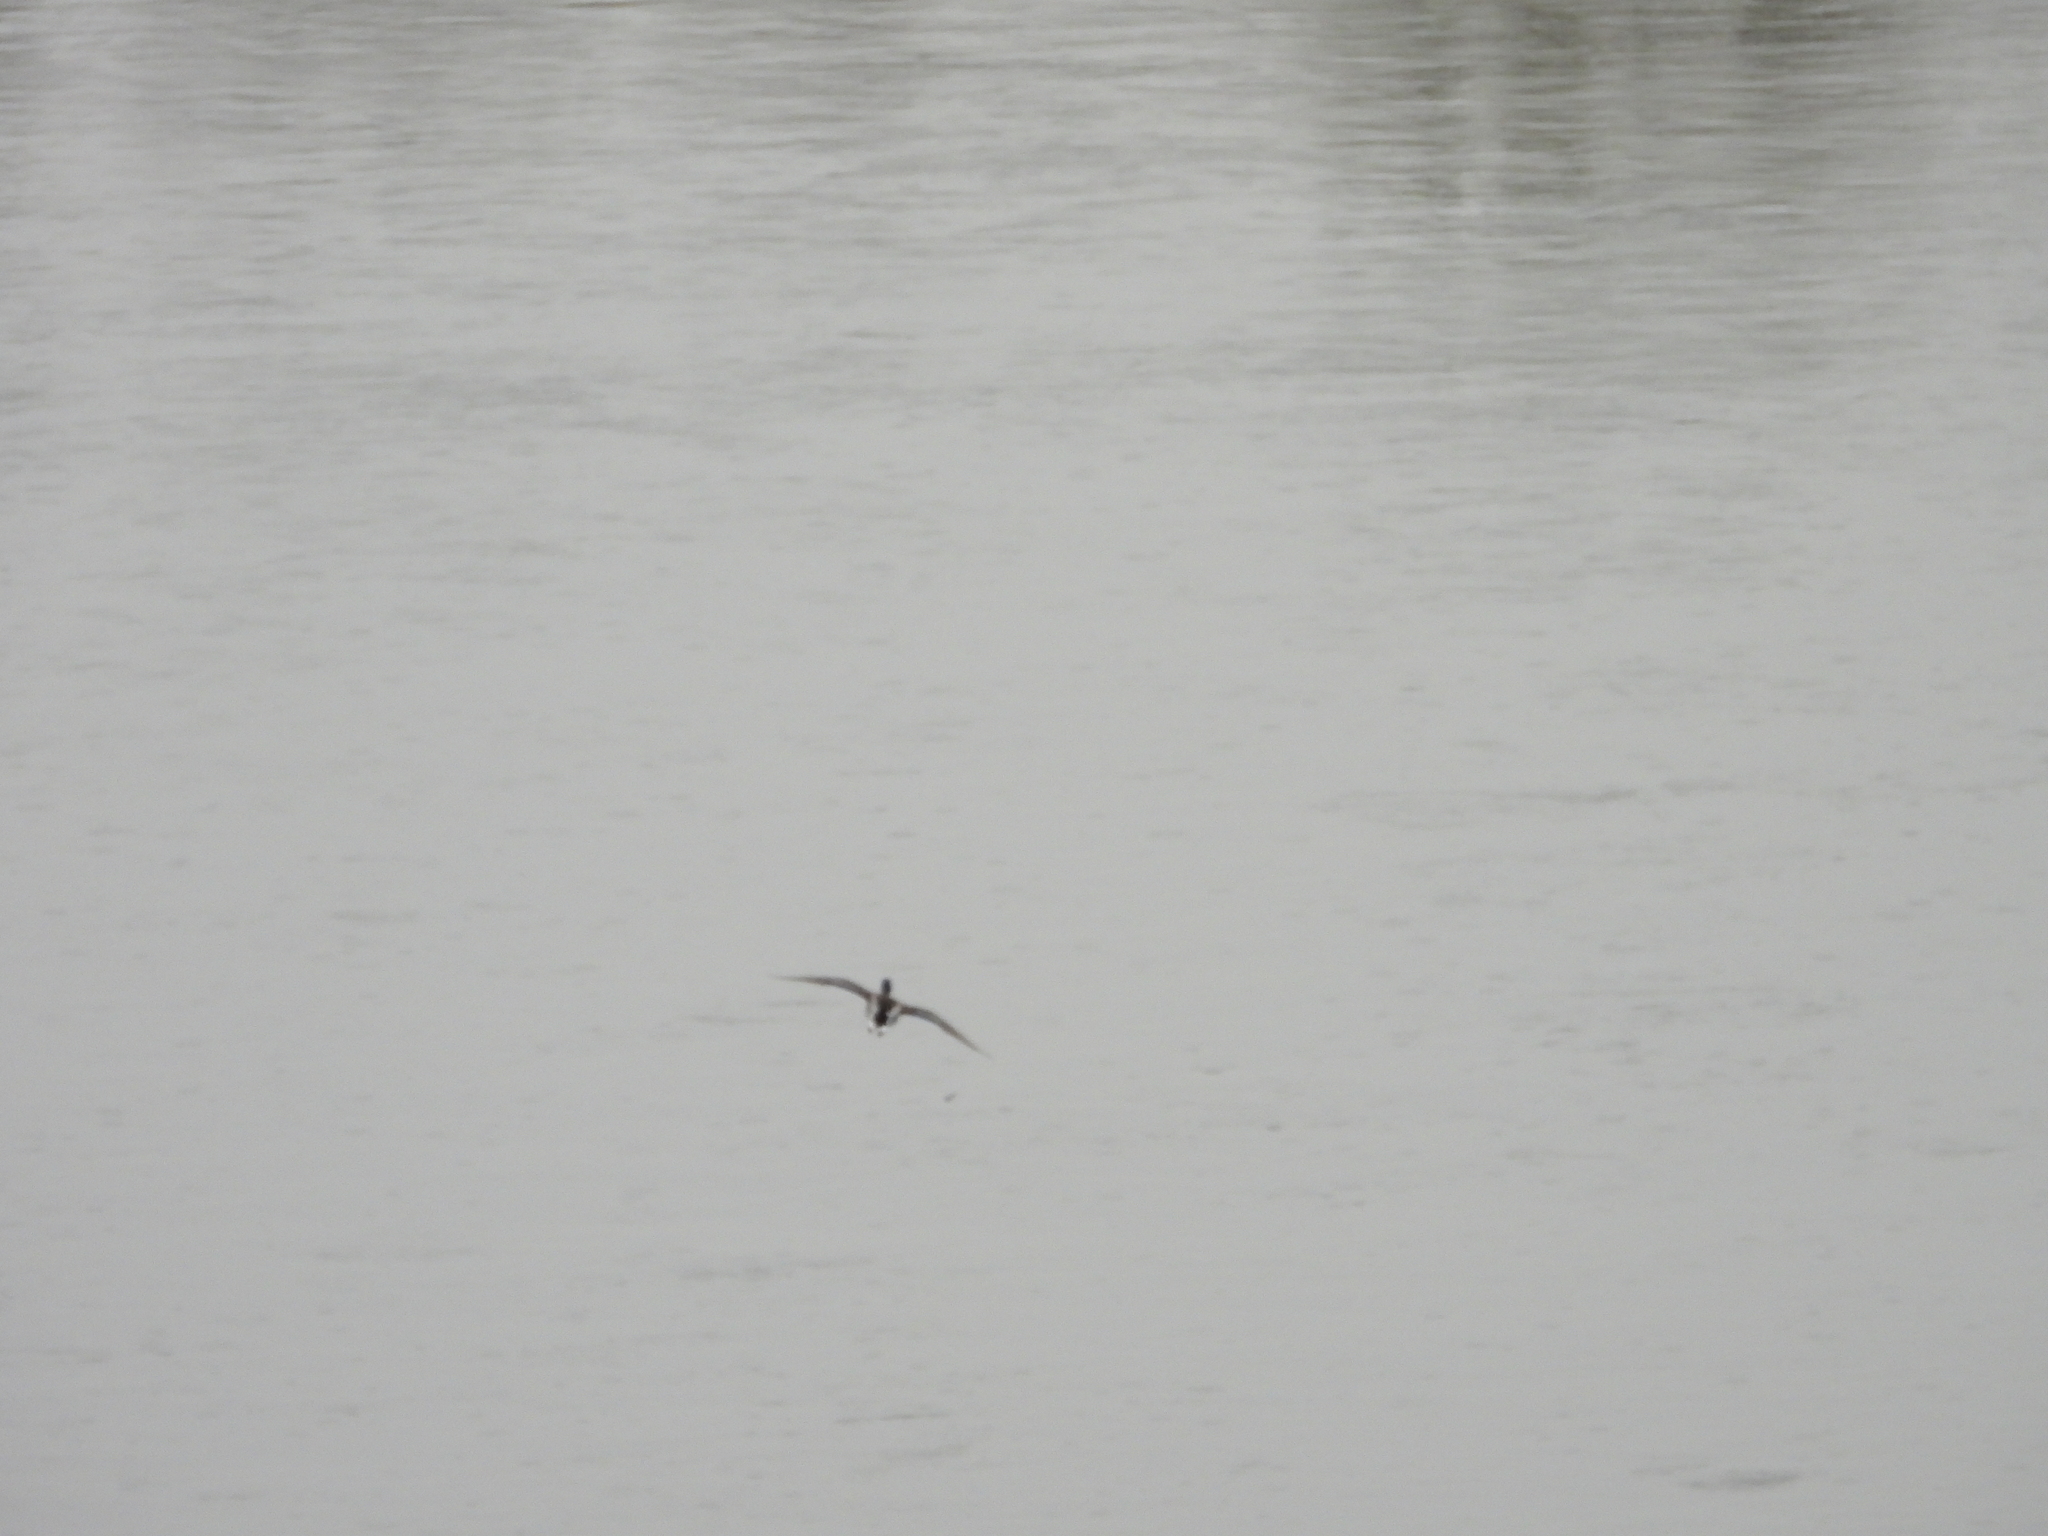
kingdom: Animalia
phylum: Chordata
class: Aves
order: Anseriformes
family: Anatidae
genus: Anas
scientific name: Anas platyrhynchos
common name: Mallard
